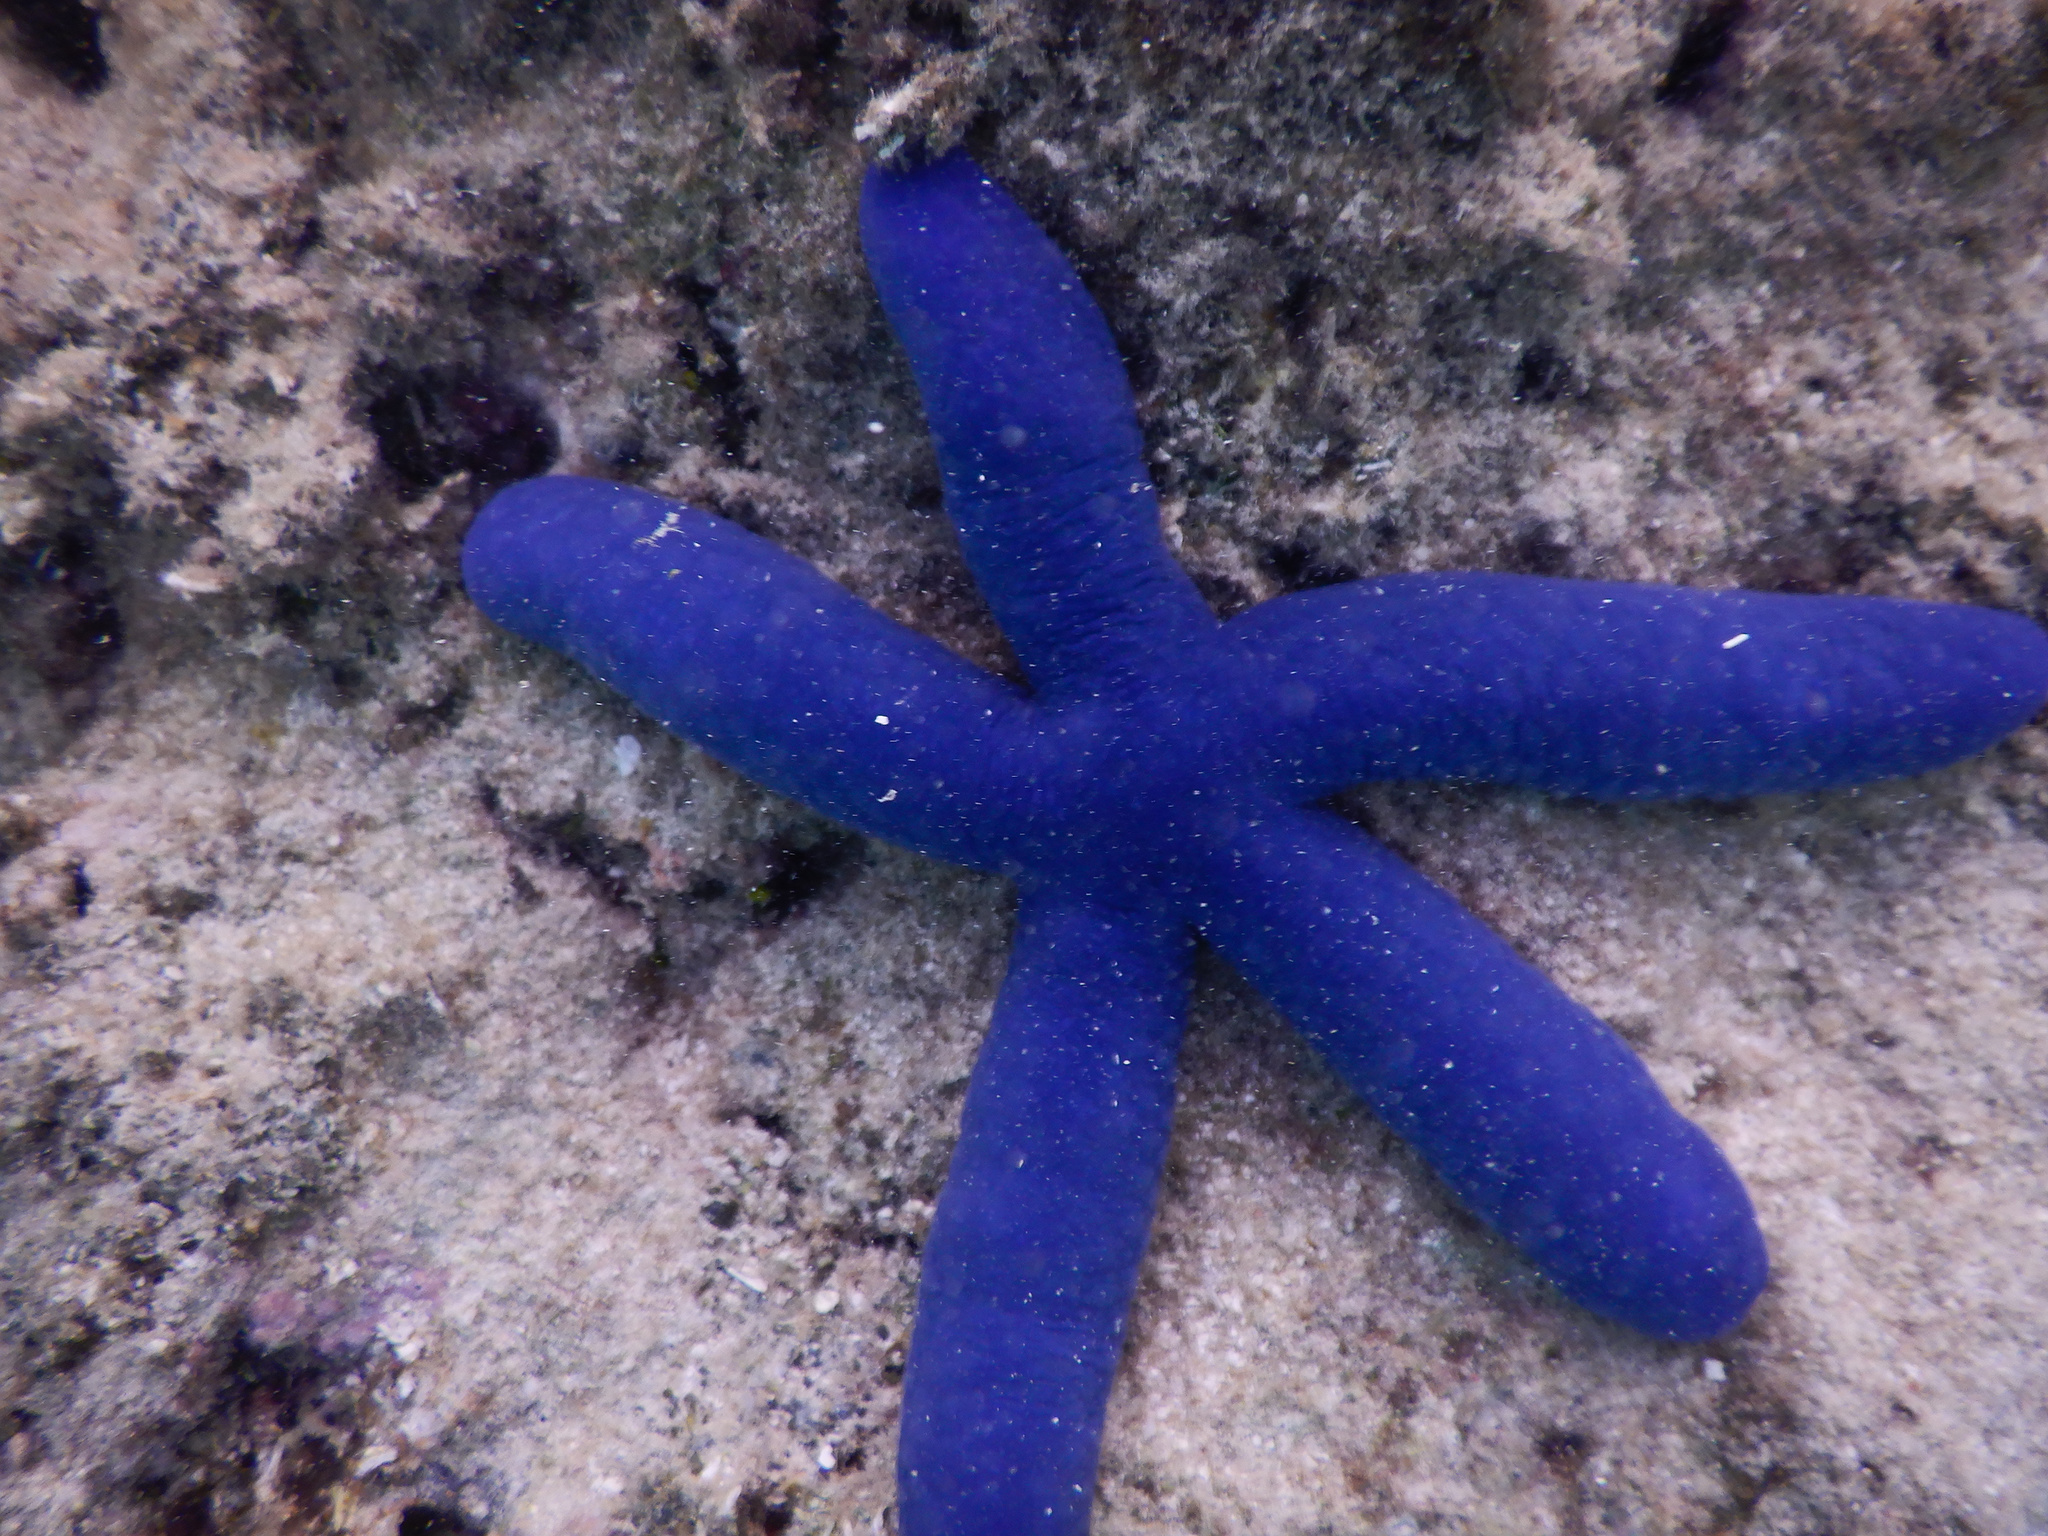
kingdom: Animalia
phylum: Echinodermata
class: Asteroidea
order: Valvatida
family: Ophidiasteridae
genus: Linckia
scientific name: Linckia laevigata
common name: Azure sea star
